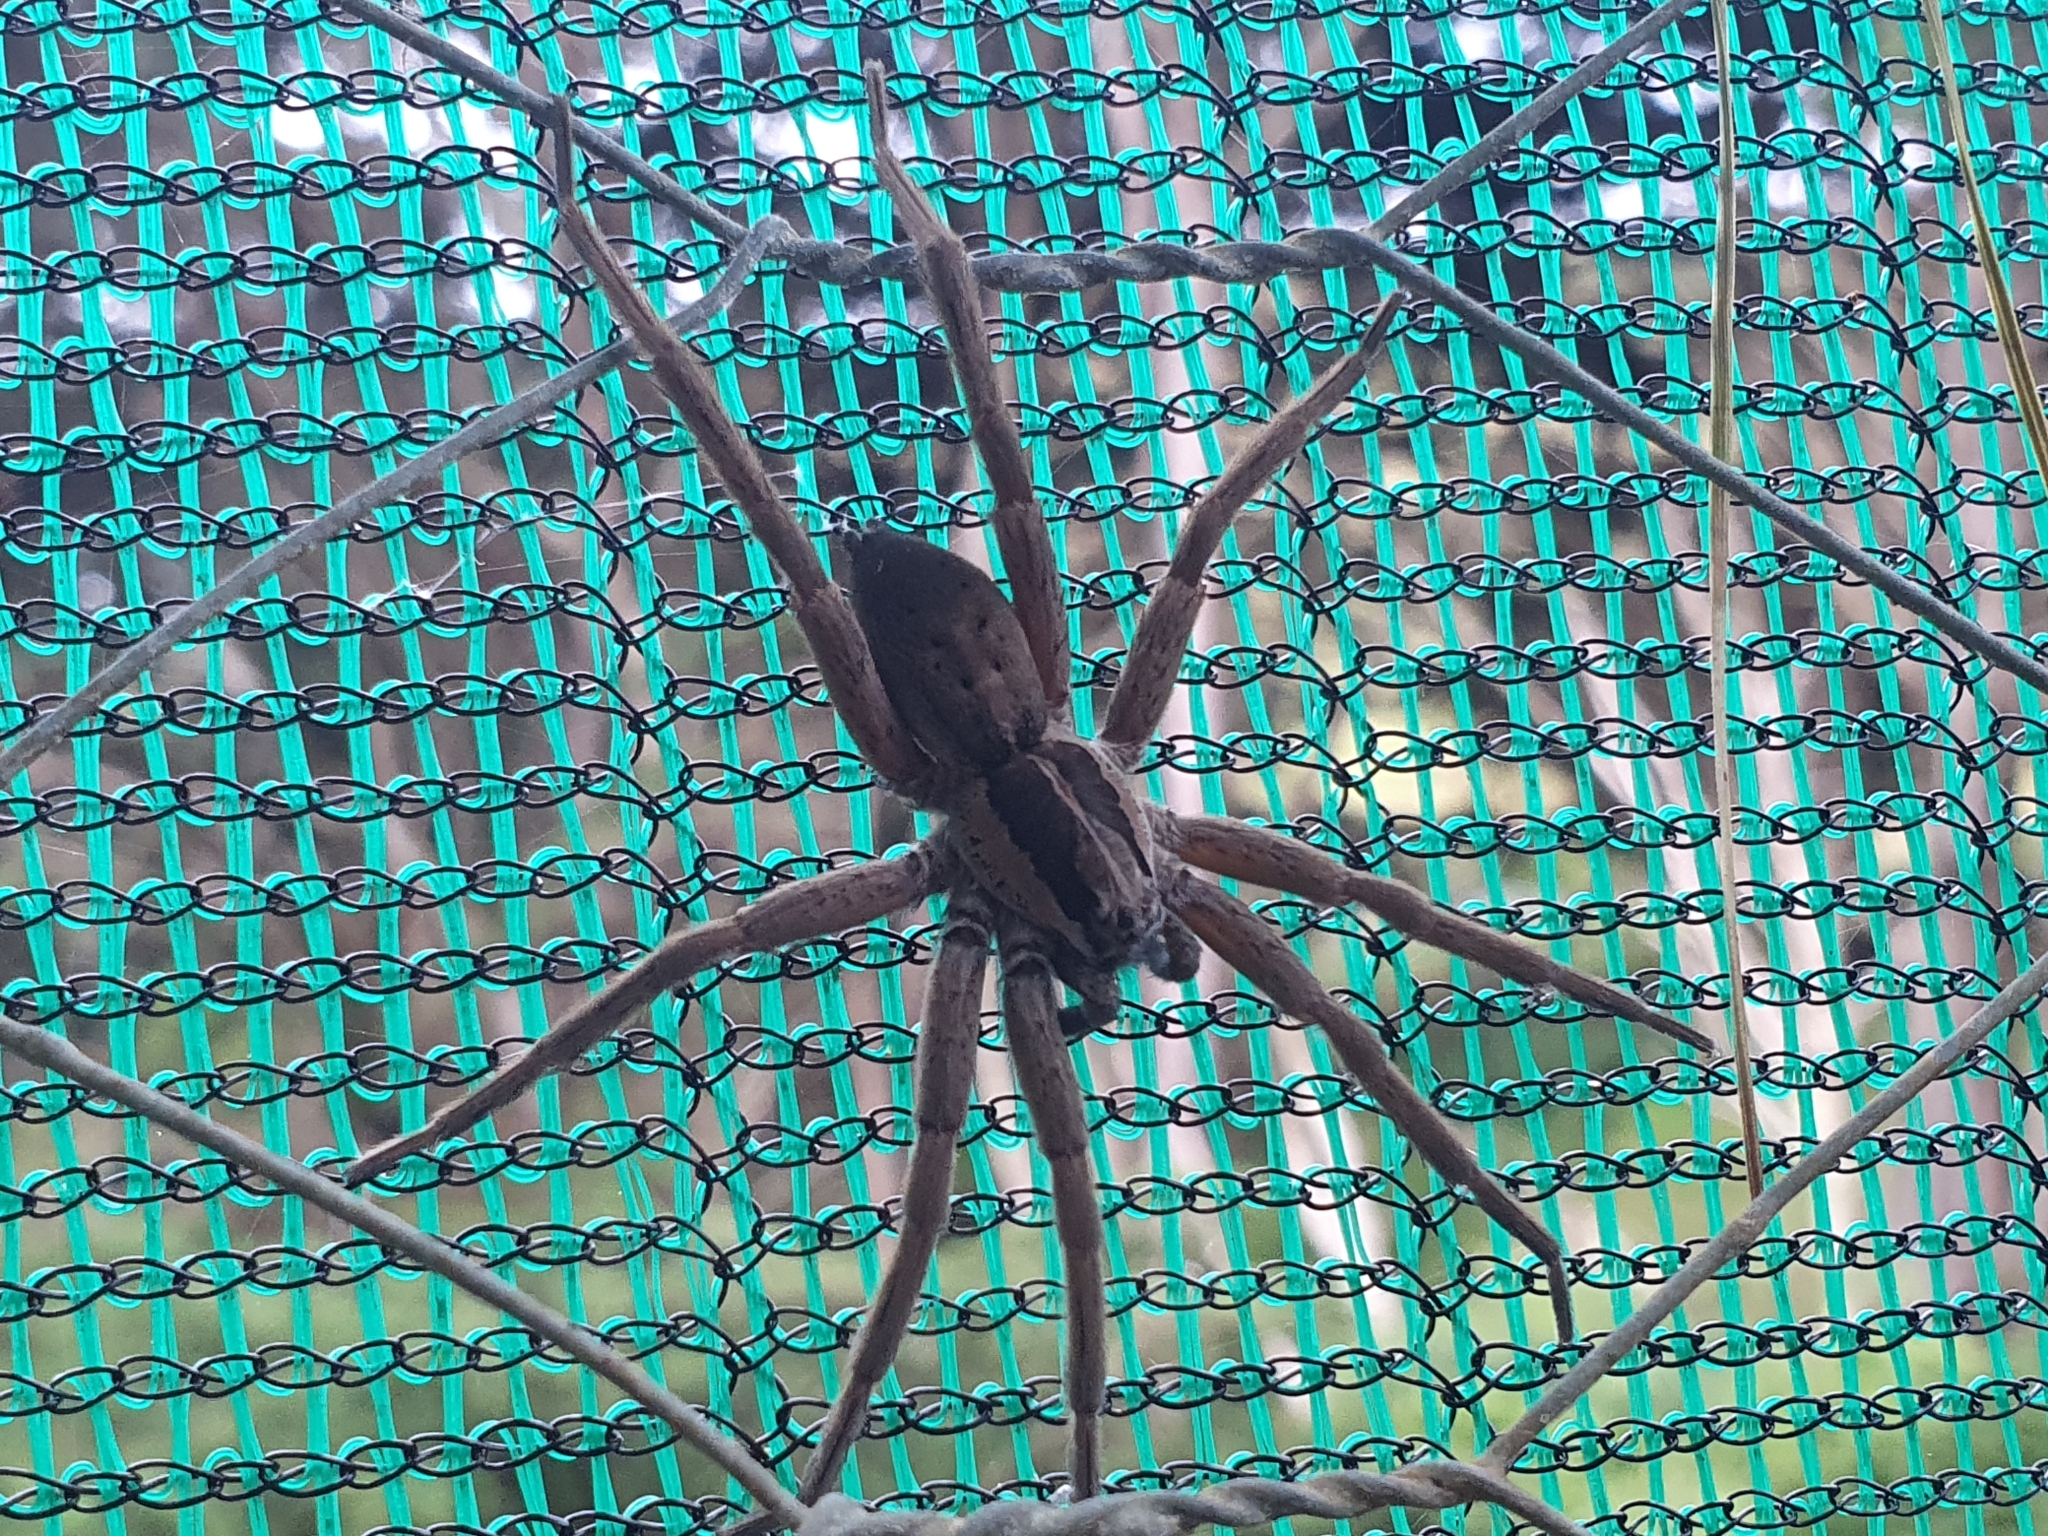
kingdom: Animalia
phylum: Arthropoda
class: Arachnida
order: Araneae
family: Pisauridae
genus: Dolomedes
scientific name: Dolomedes minor
